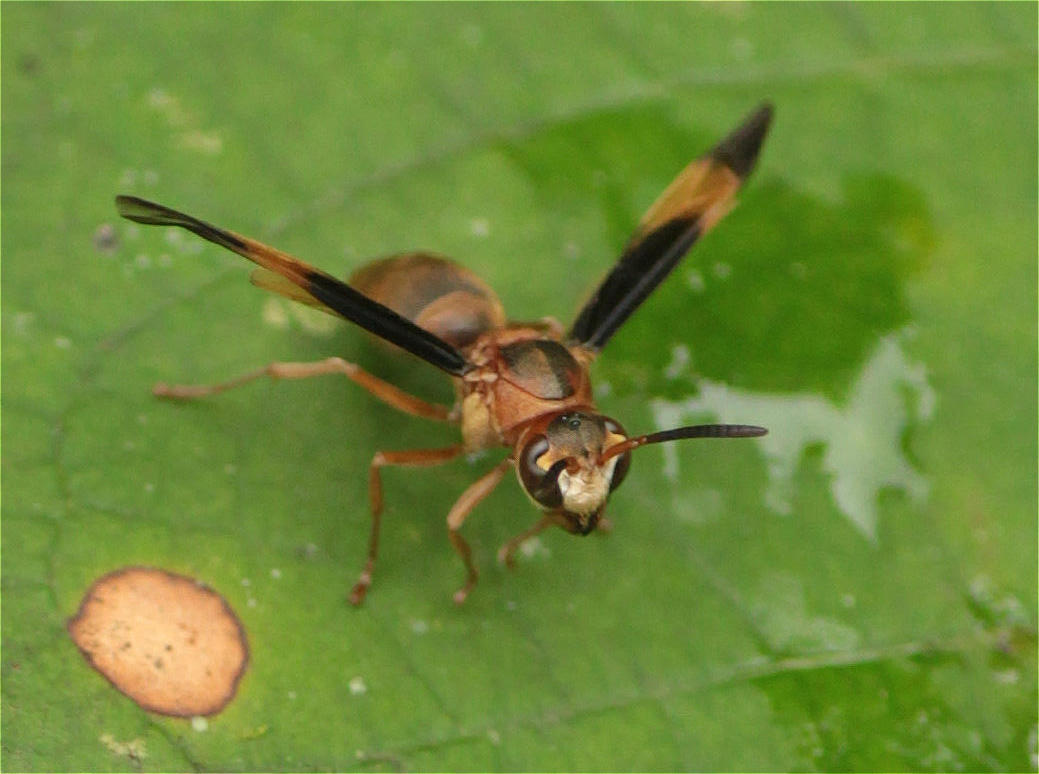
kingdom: Animalia
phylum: Arthropoda
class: Insecta
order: Hymenoptera
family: Vespidae
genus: Parachartergus
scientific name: Parachartergus amazonensis
